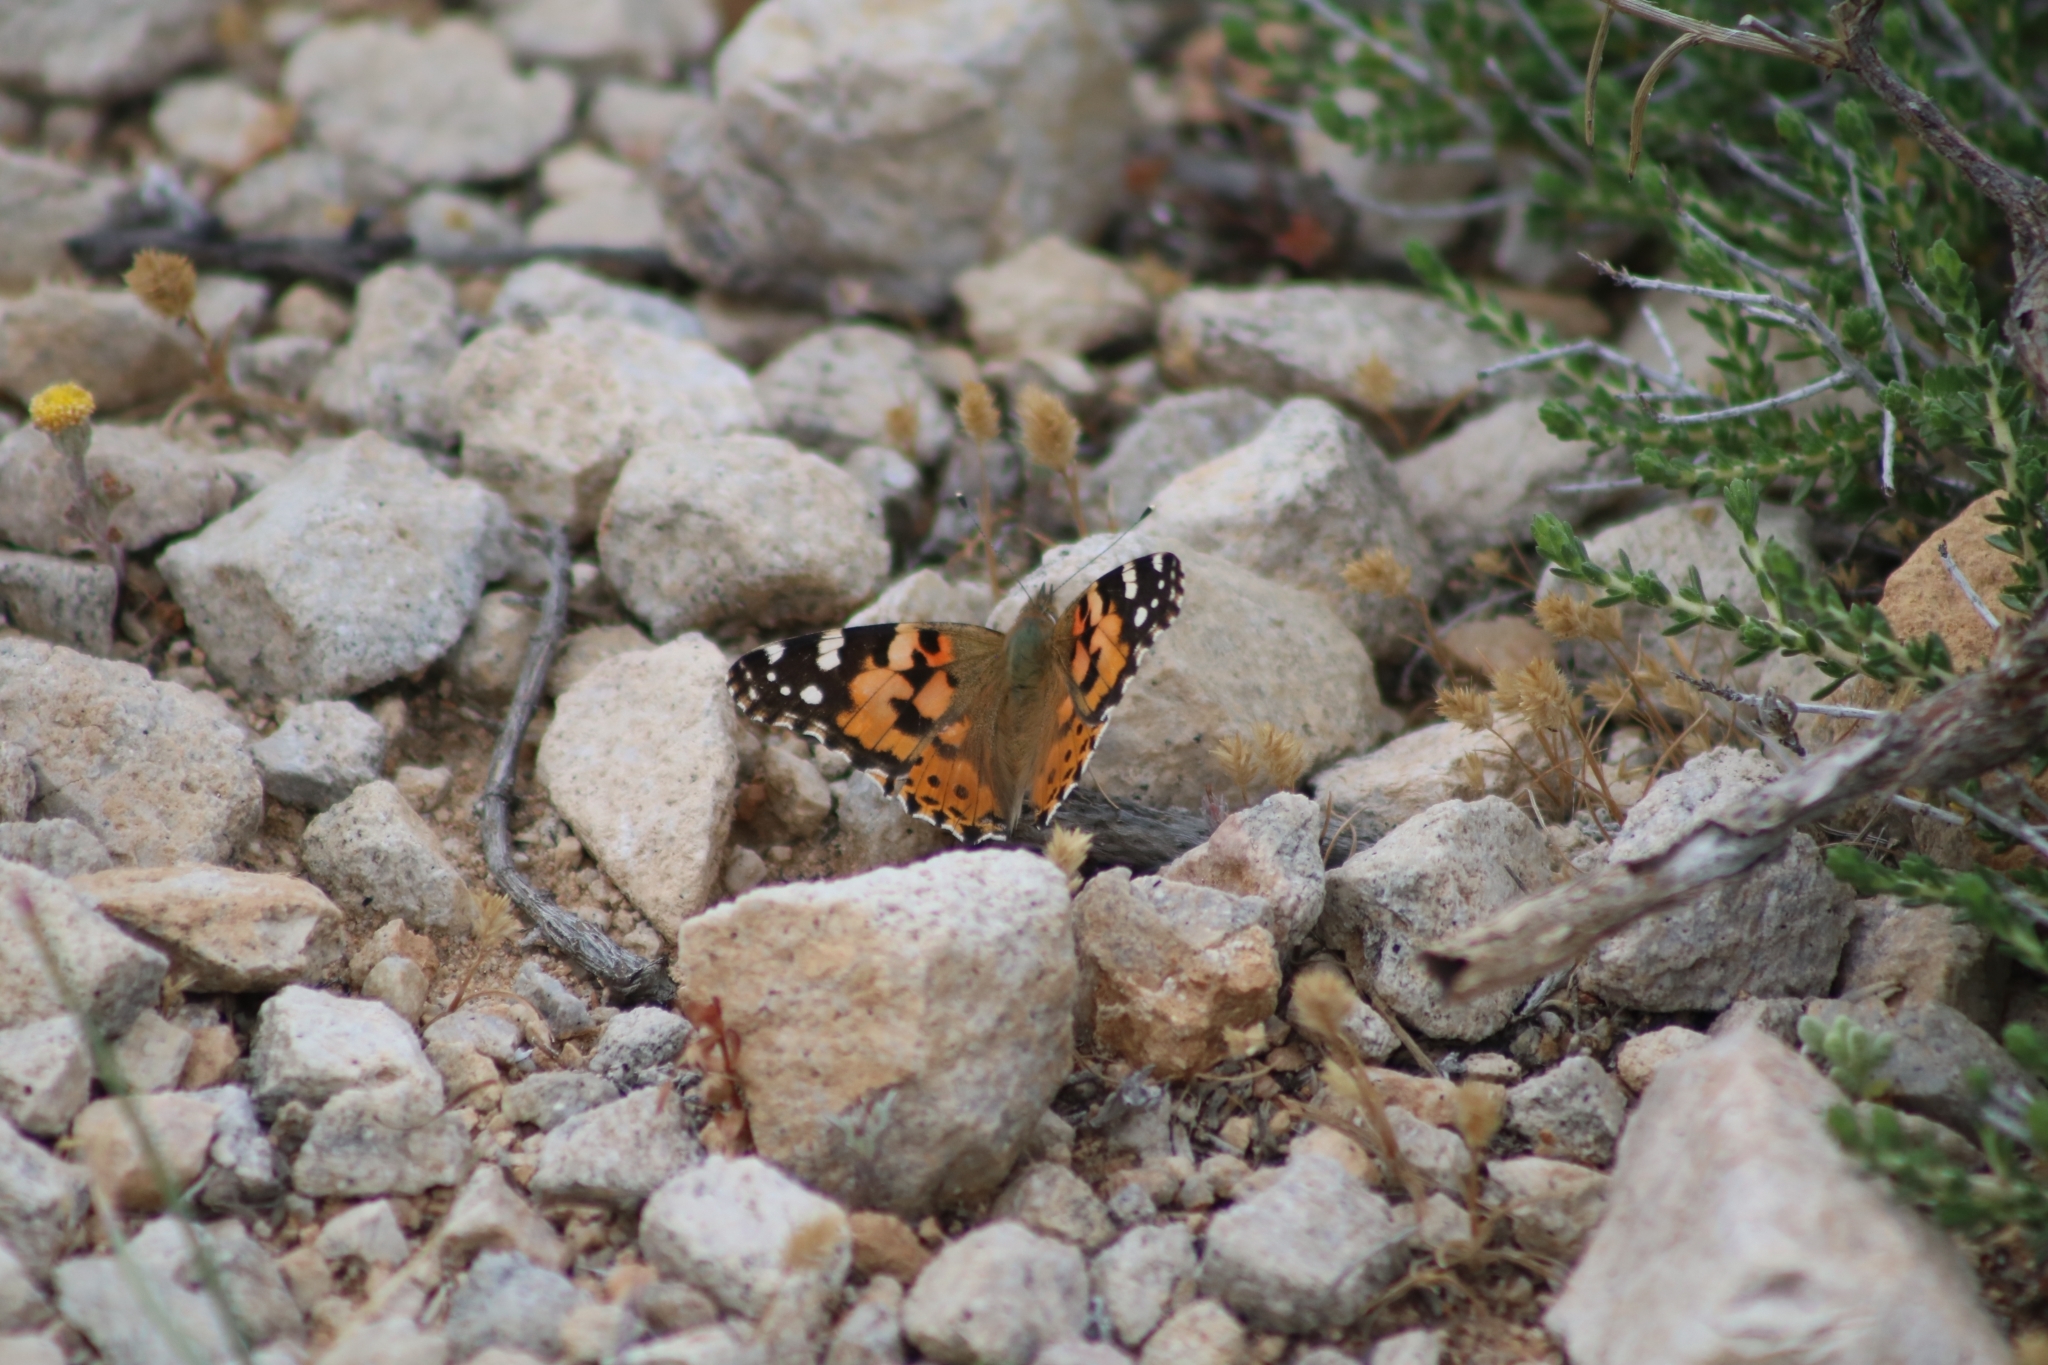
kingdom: Animalia
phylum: Arthropoda
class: Insecta
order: Lepidoptera
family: Nymphalidae
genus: Vanessa
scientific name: Vanessa cardui
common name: Painted lady
